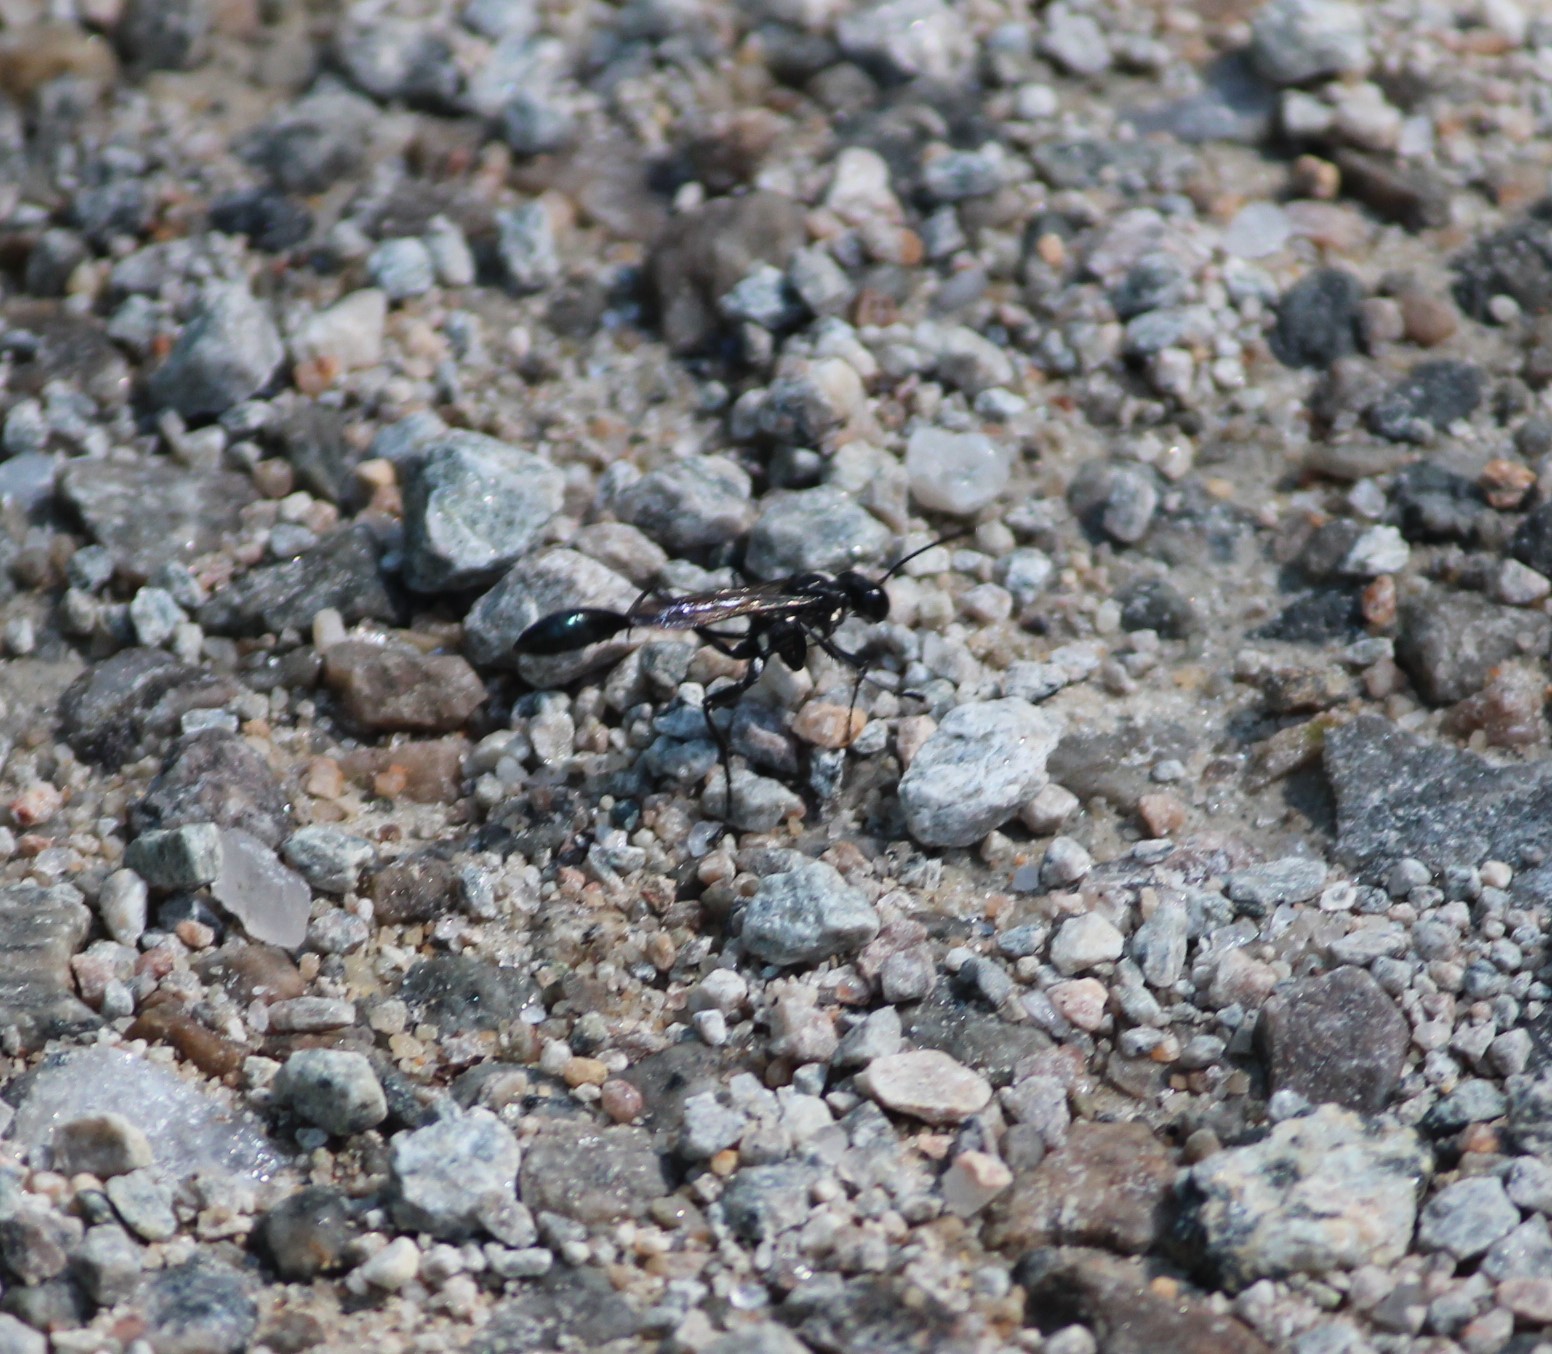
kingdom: Animalia
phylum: Arthropoda
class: Insecta
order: Hymenoptera
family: Sphecidae
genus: Eremnophila
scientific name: Eremnophila aureonotata
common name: Gold-marked thread-waisted wasp
